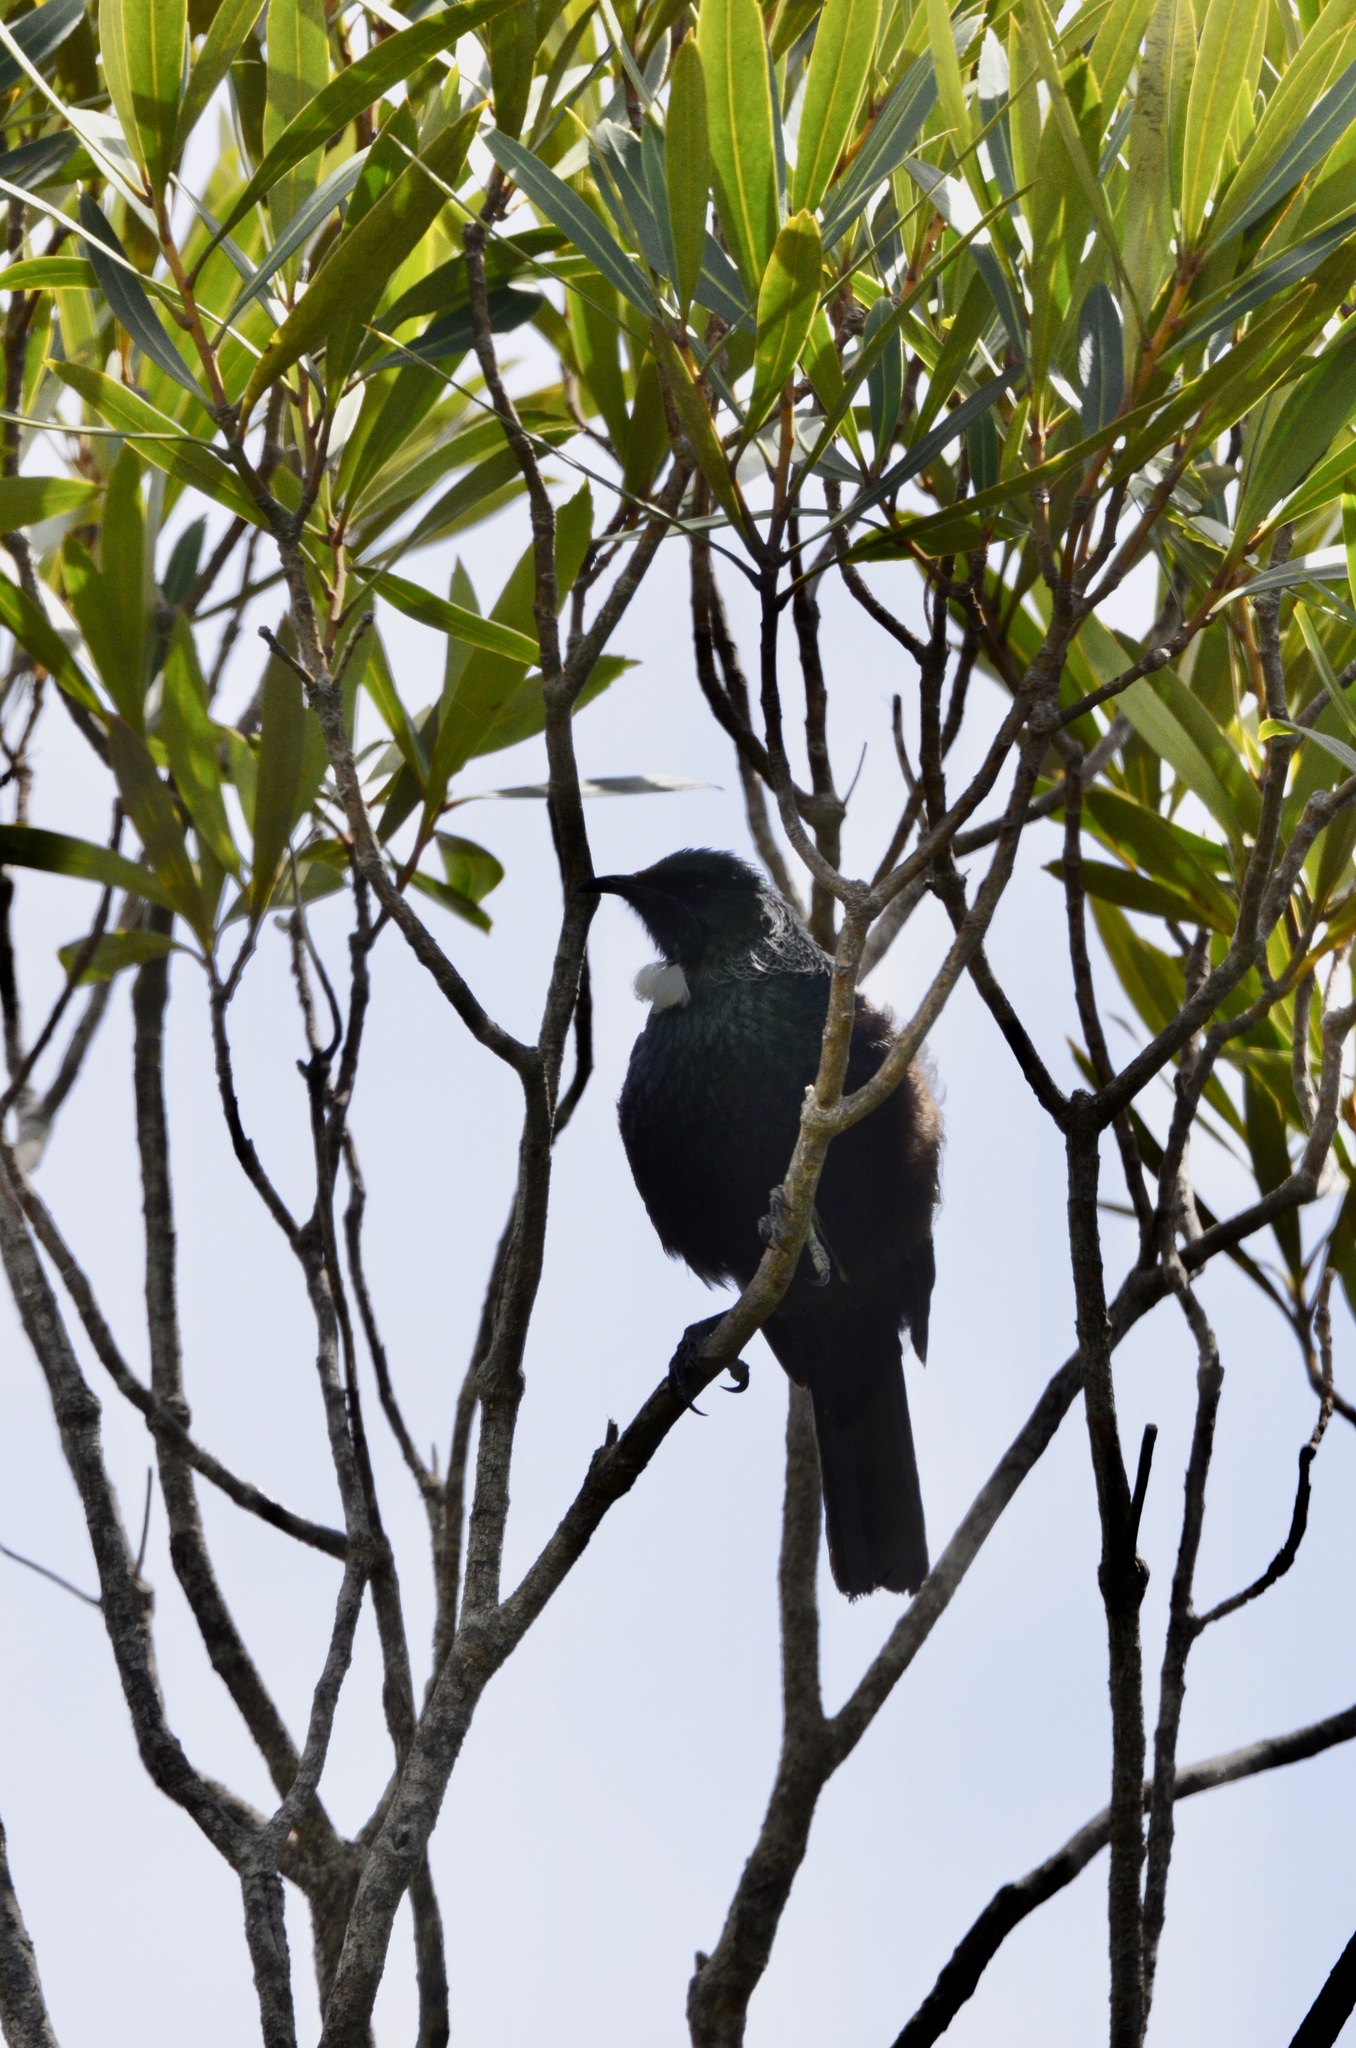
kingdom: Animalia
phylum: Chordata
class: Aves
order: Passeriformes
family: Meliphagidae
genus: Prosthemadera
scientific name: Prosthemadera novaeseelandiae
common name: Tui
